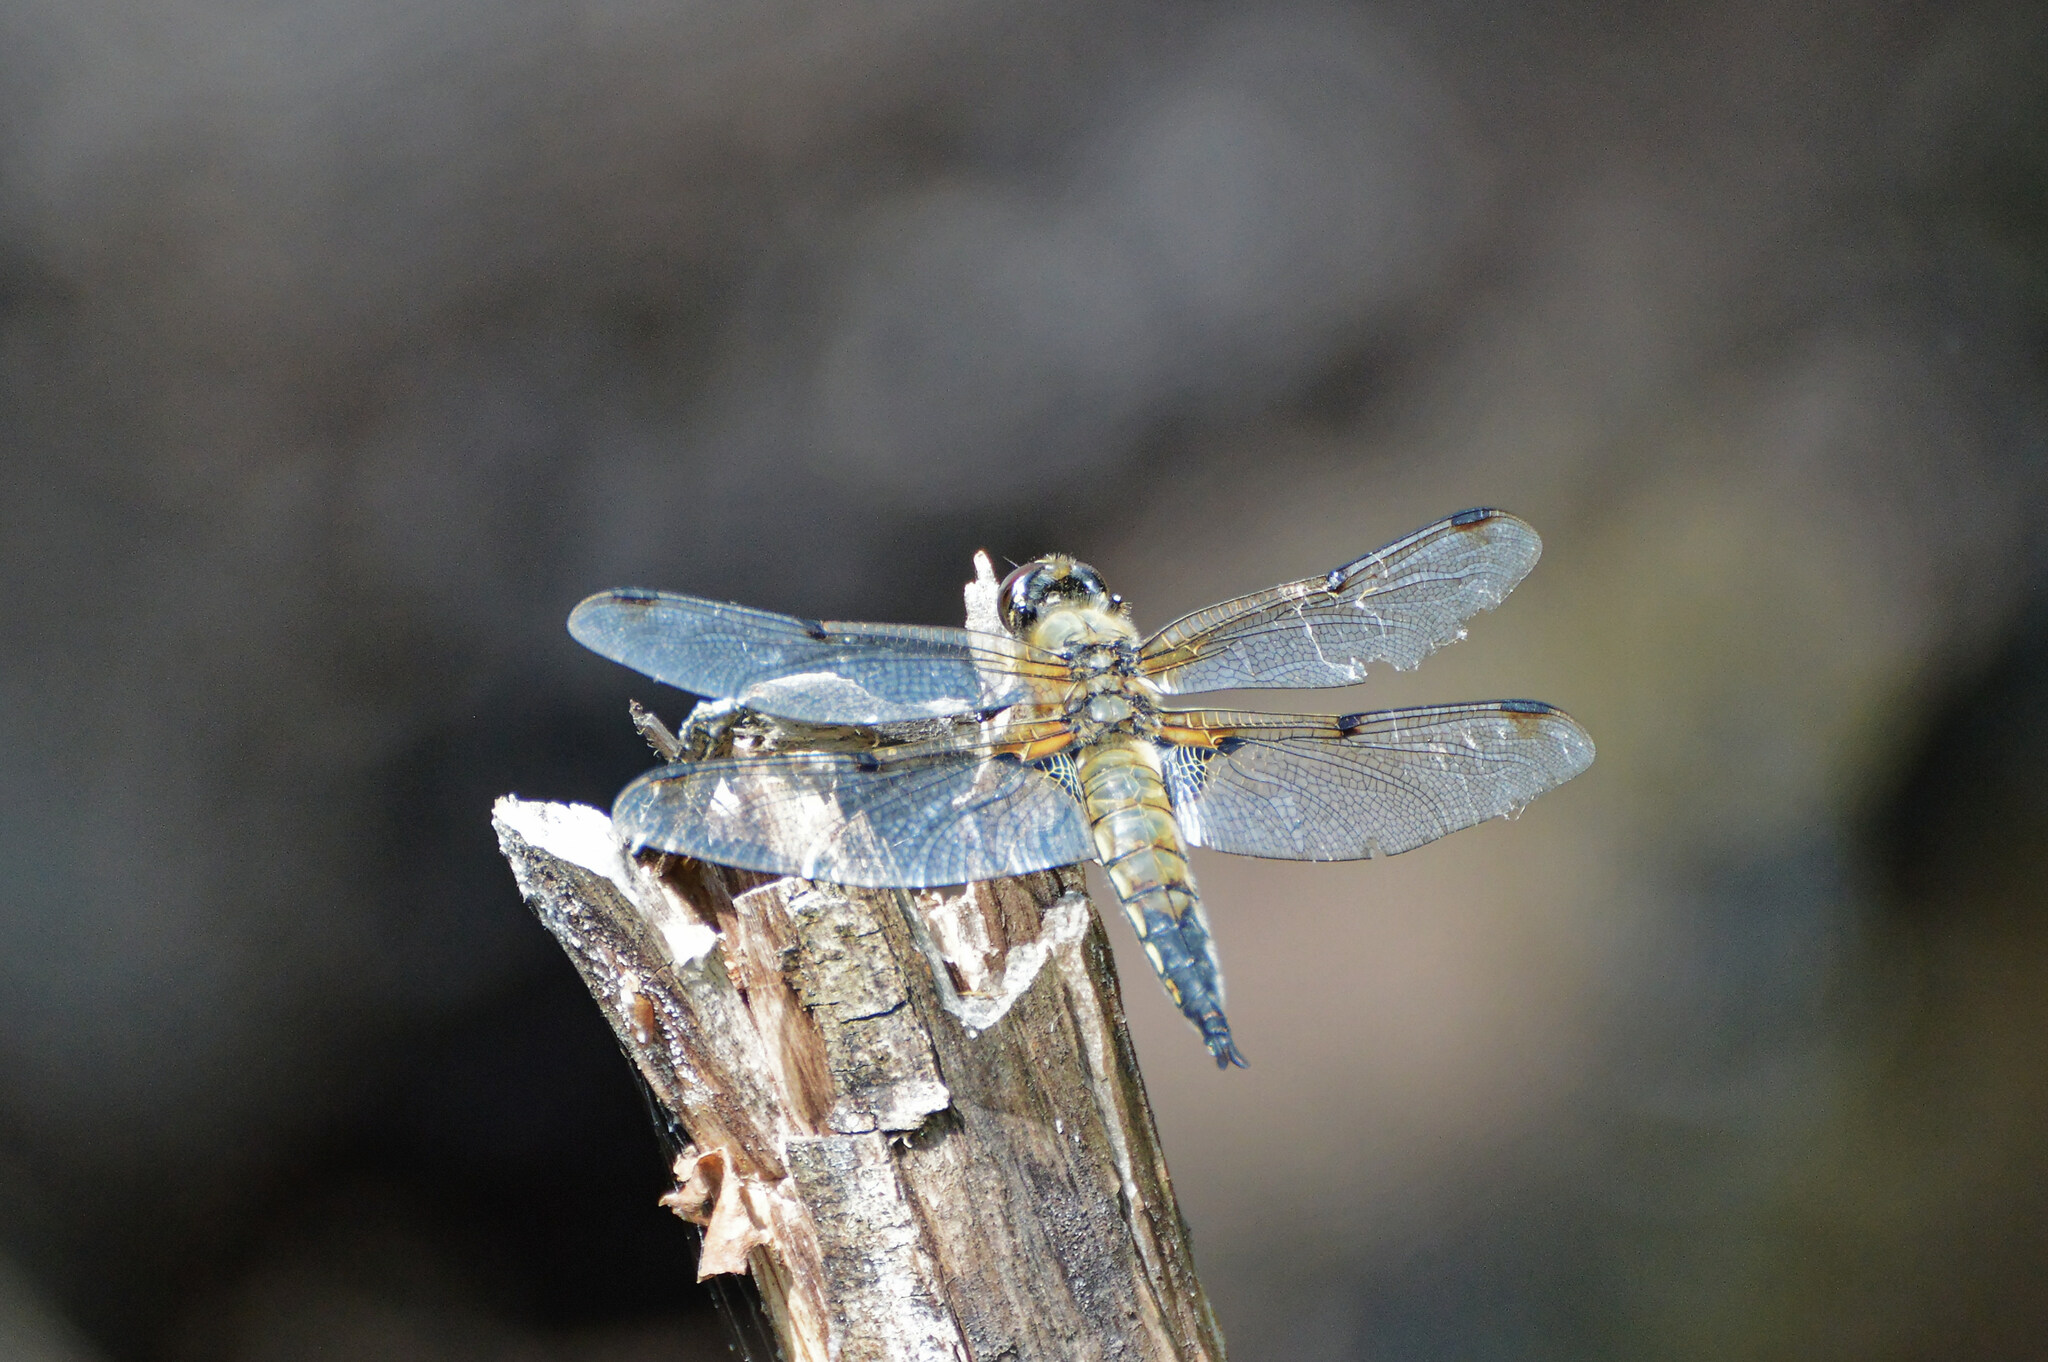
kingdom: Animalia
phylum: Arthropoda
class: Insecta
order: Odonata
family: Libellulidae
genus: Libellula
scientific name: Libellula quadrimaculata
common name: Four-spotted chaser
